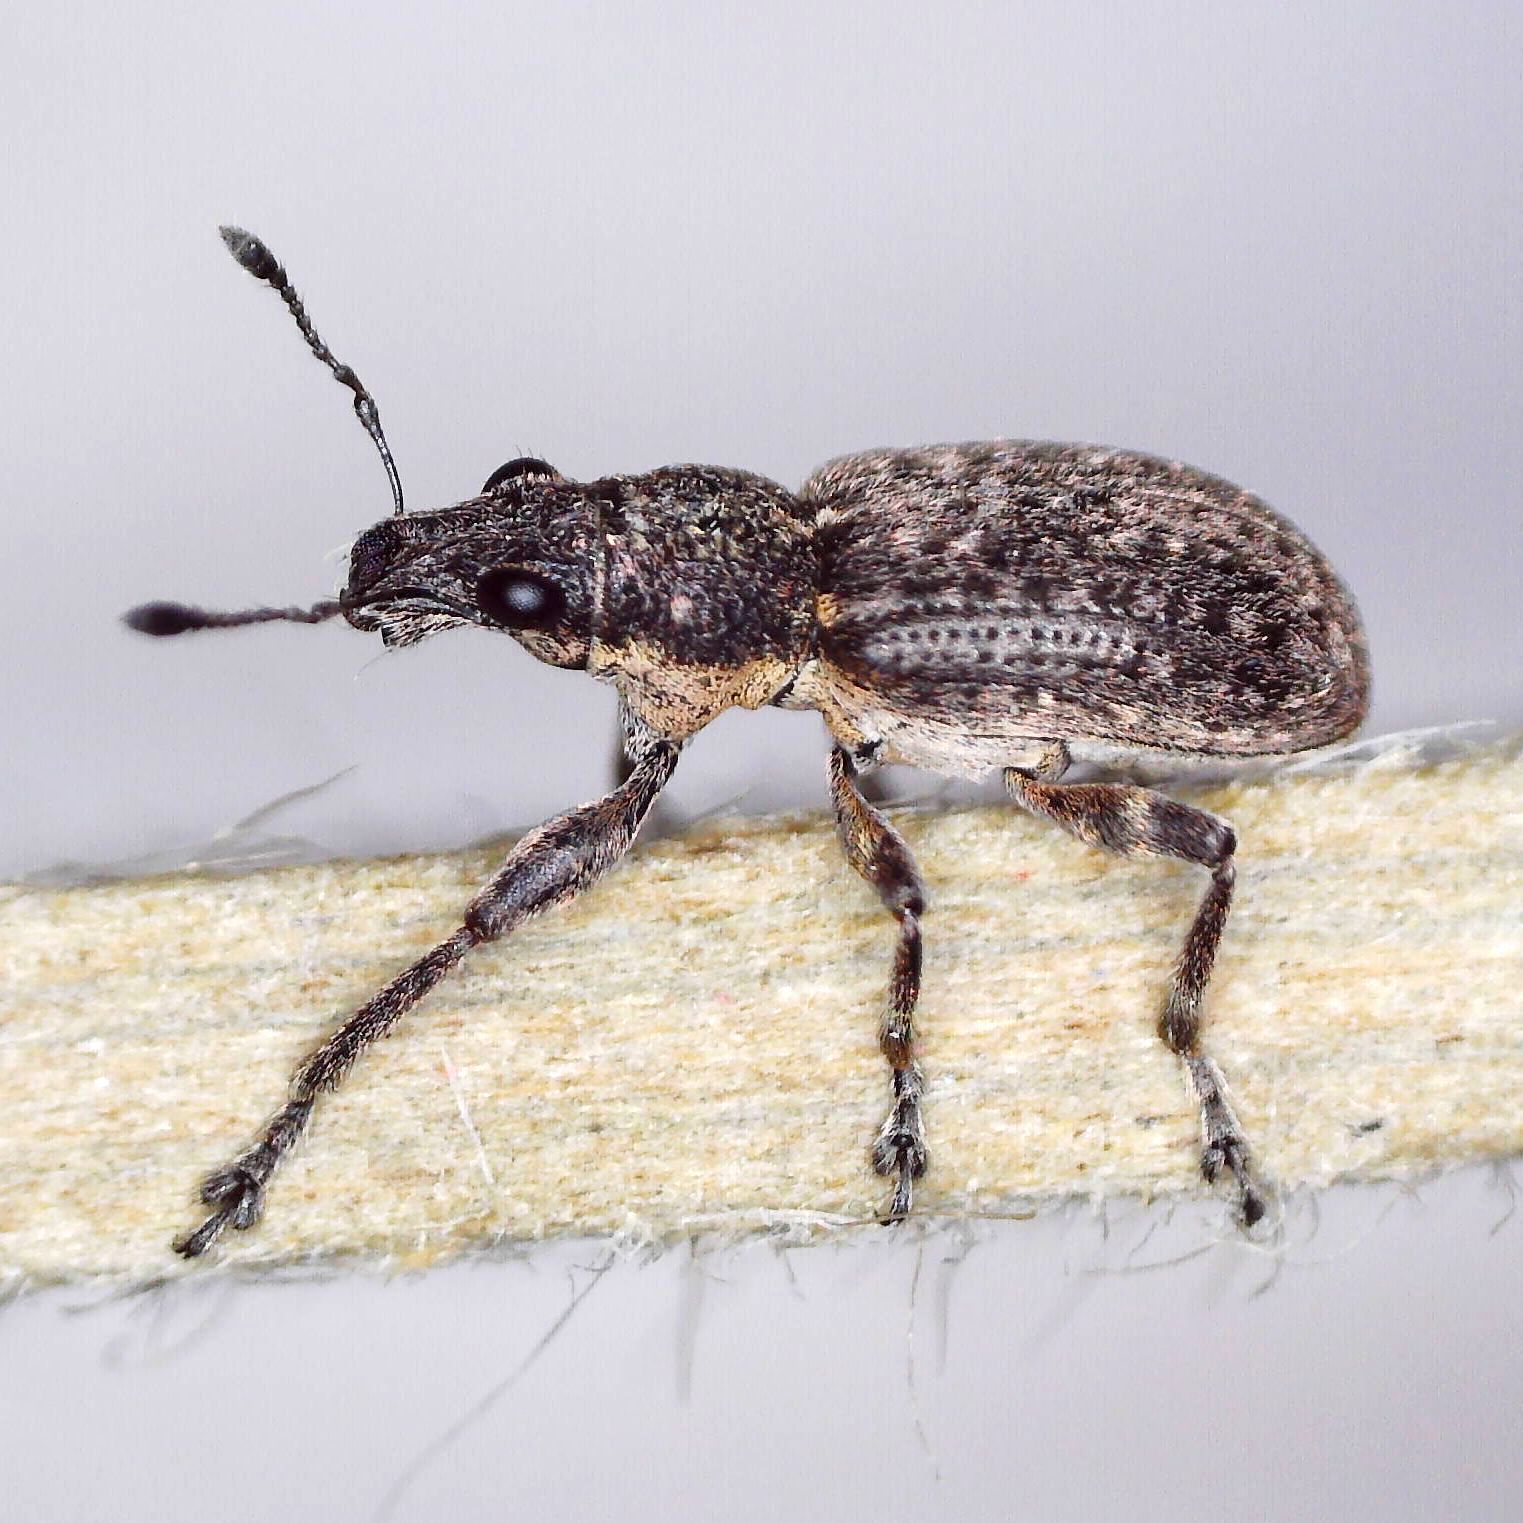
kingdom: Animalia
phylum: Arthropoda
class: Insecta
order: Coleoptera
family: Curculionidae
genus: Coelositona
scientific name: Coelositona cambricus
